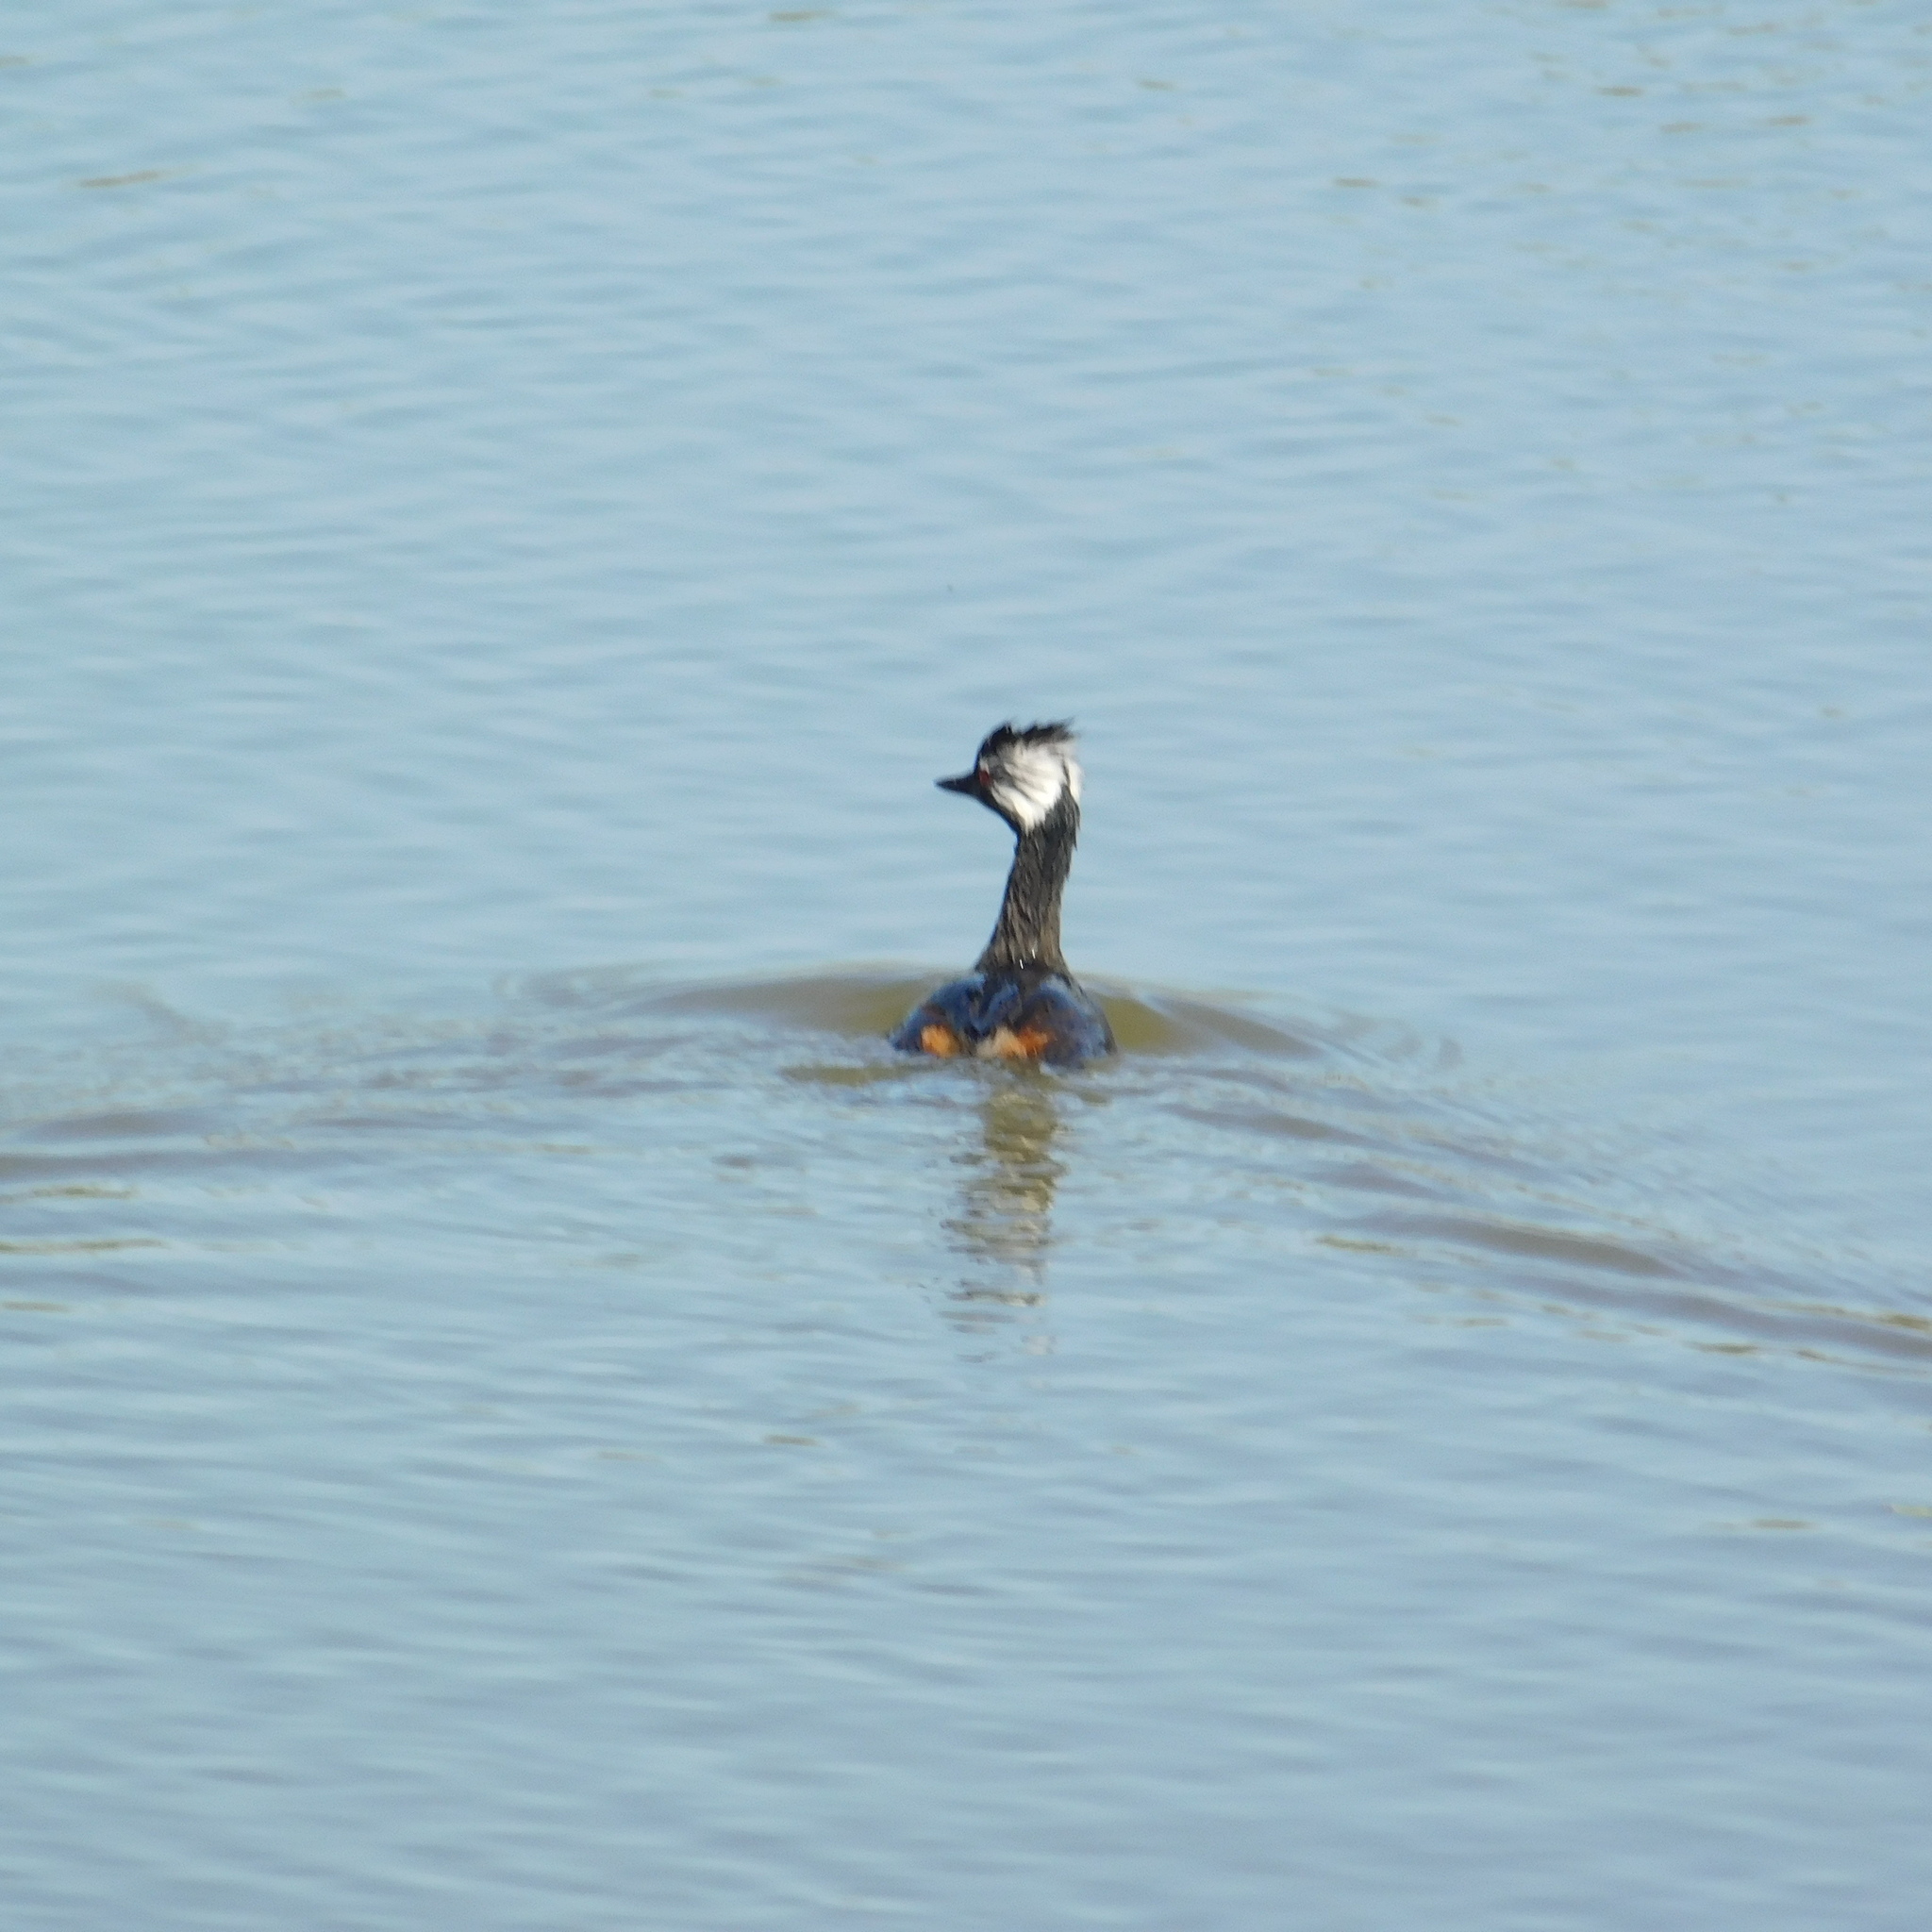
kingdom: Animalia
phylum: Chordata
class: Aves
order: Podicipediformes
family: Podicipedidae
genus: Rollandia
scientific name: Rollandia rolland
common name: White-tufted grebe
